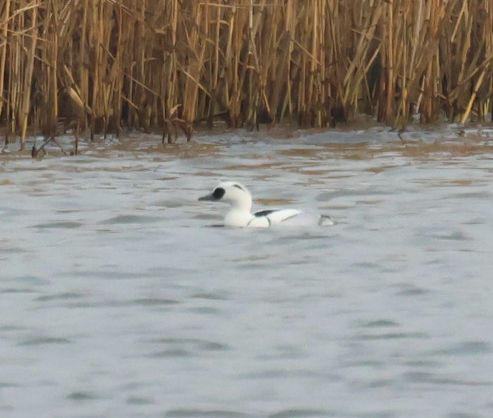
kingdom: Animalia
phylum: Chordata
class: Aves
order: Anseriformes
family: Anatidae
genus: Mergellus
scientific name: Mergellus albellus
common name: Smew
